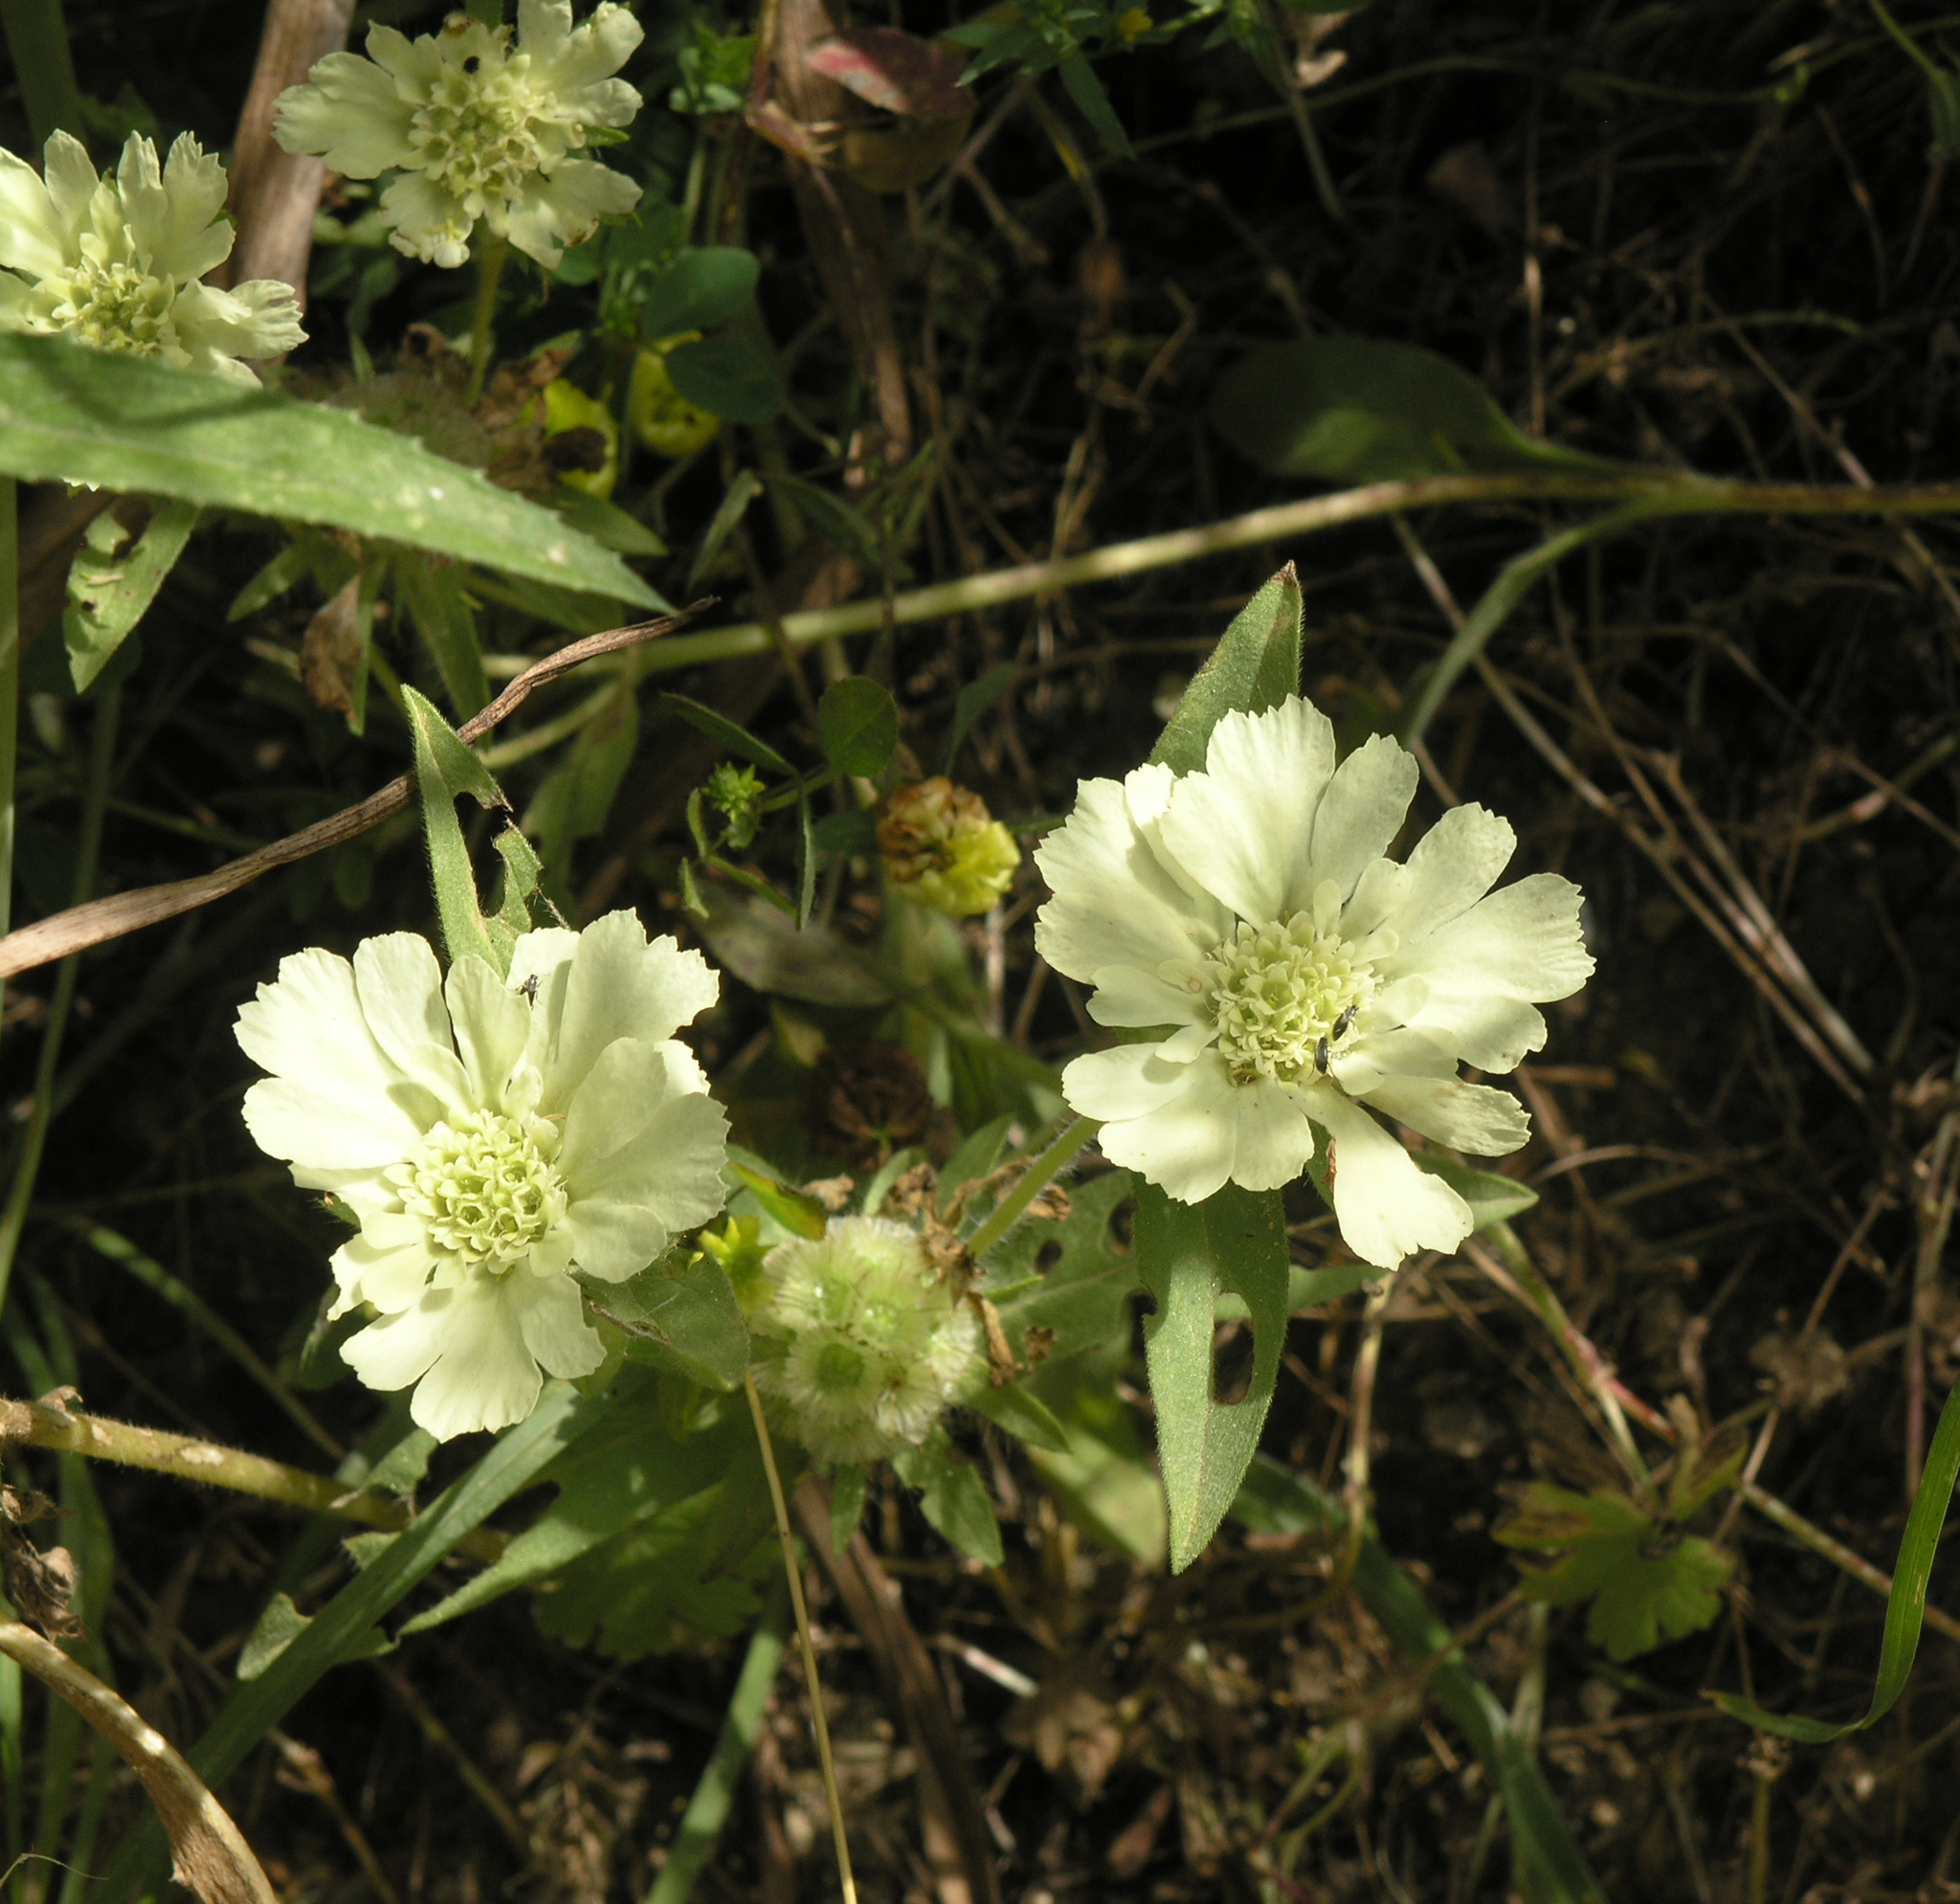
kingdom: Plantae
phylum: Tracheophyta
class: Magnoliopsida
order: Dipsacales
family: Caprifoliaceae
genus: Lomelosia
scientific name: Lomelosia prolifera
